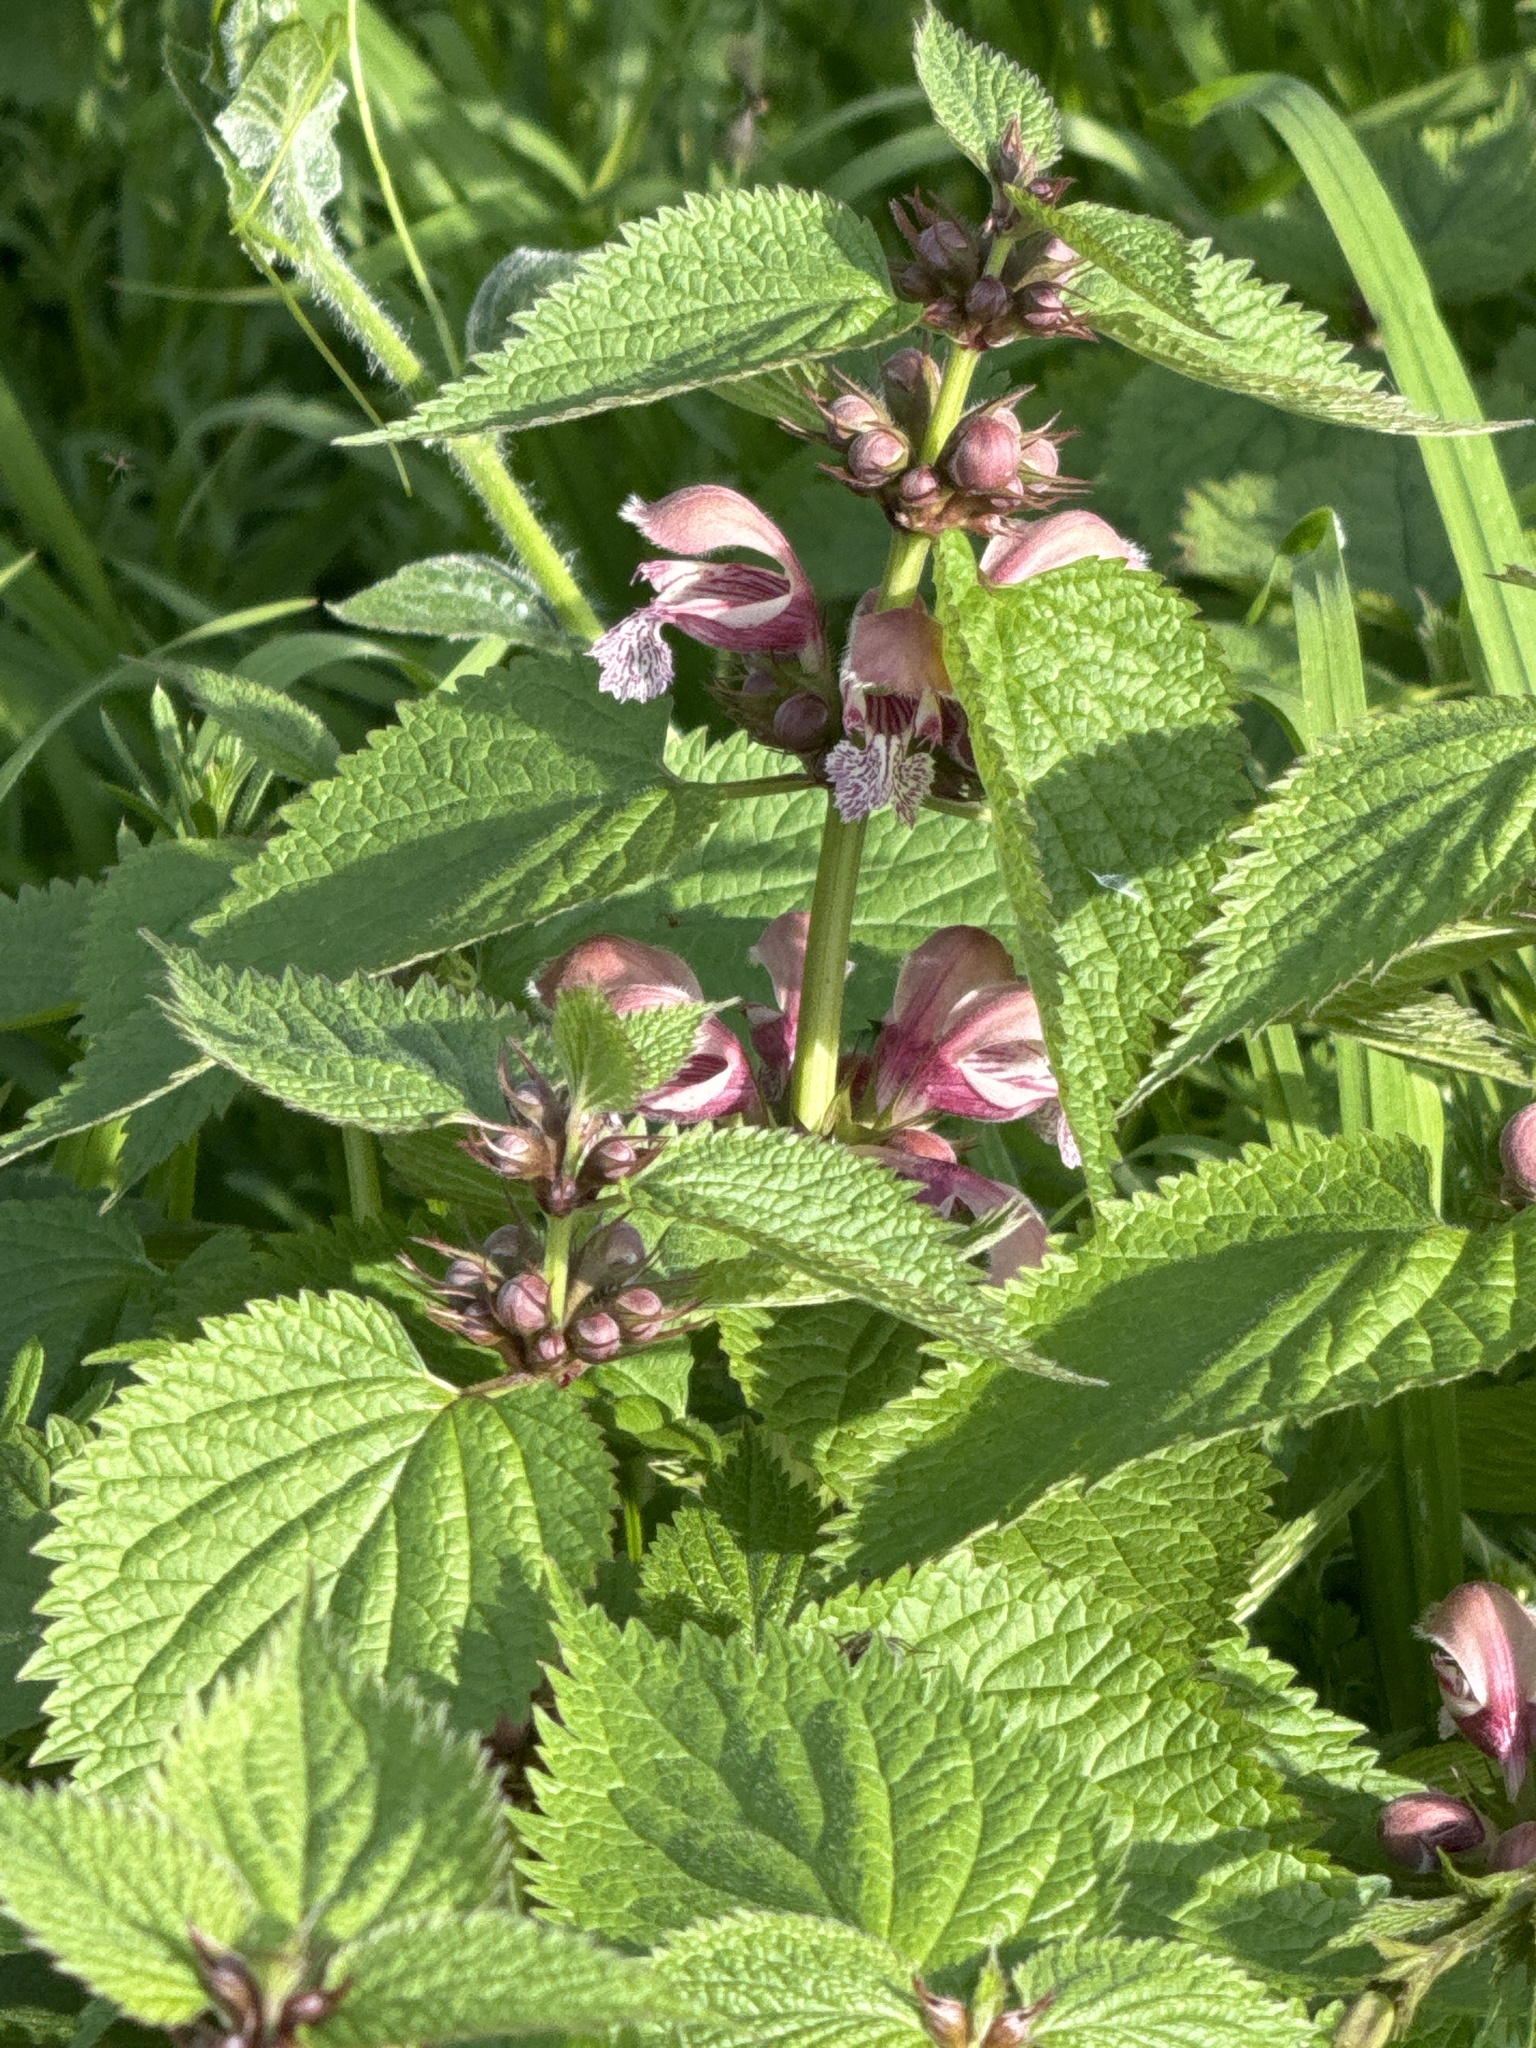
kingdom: Plantae
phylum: Tracheophyta
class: Magnoliopsida
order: Lamiales
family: Lamiaceae
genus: Lamium
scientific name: Lamium orvala
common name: Balm-leaved archangel
